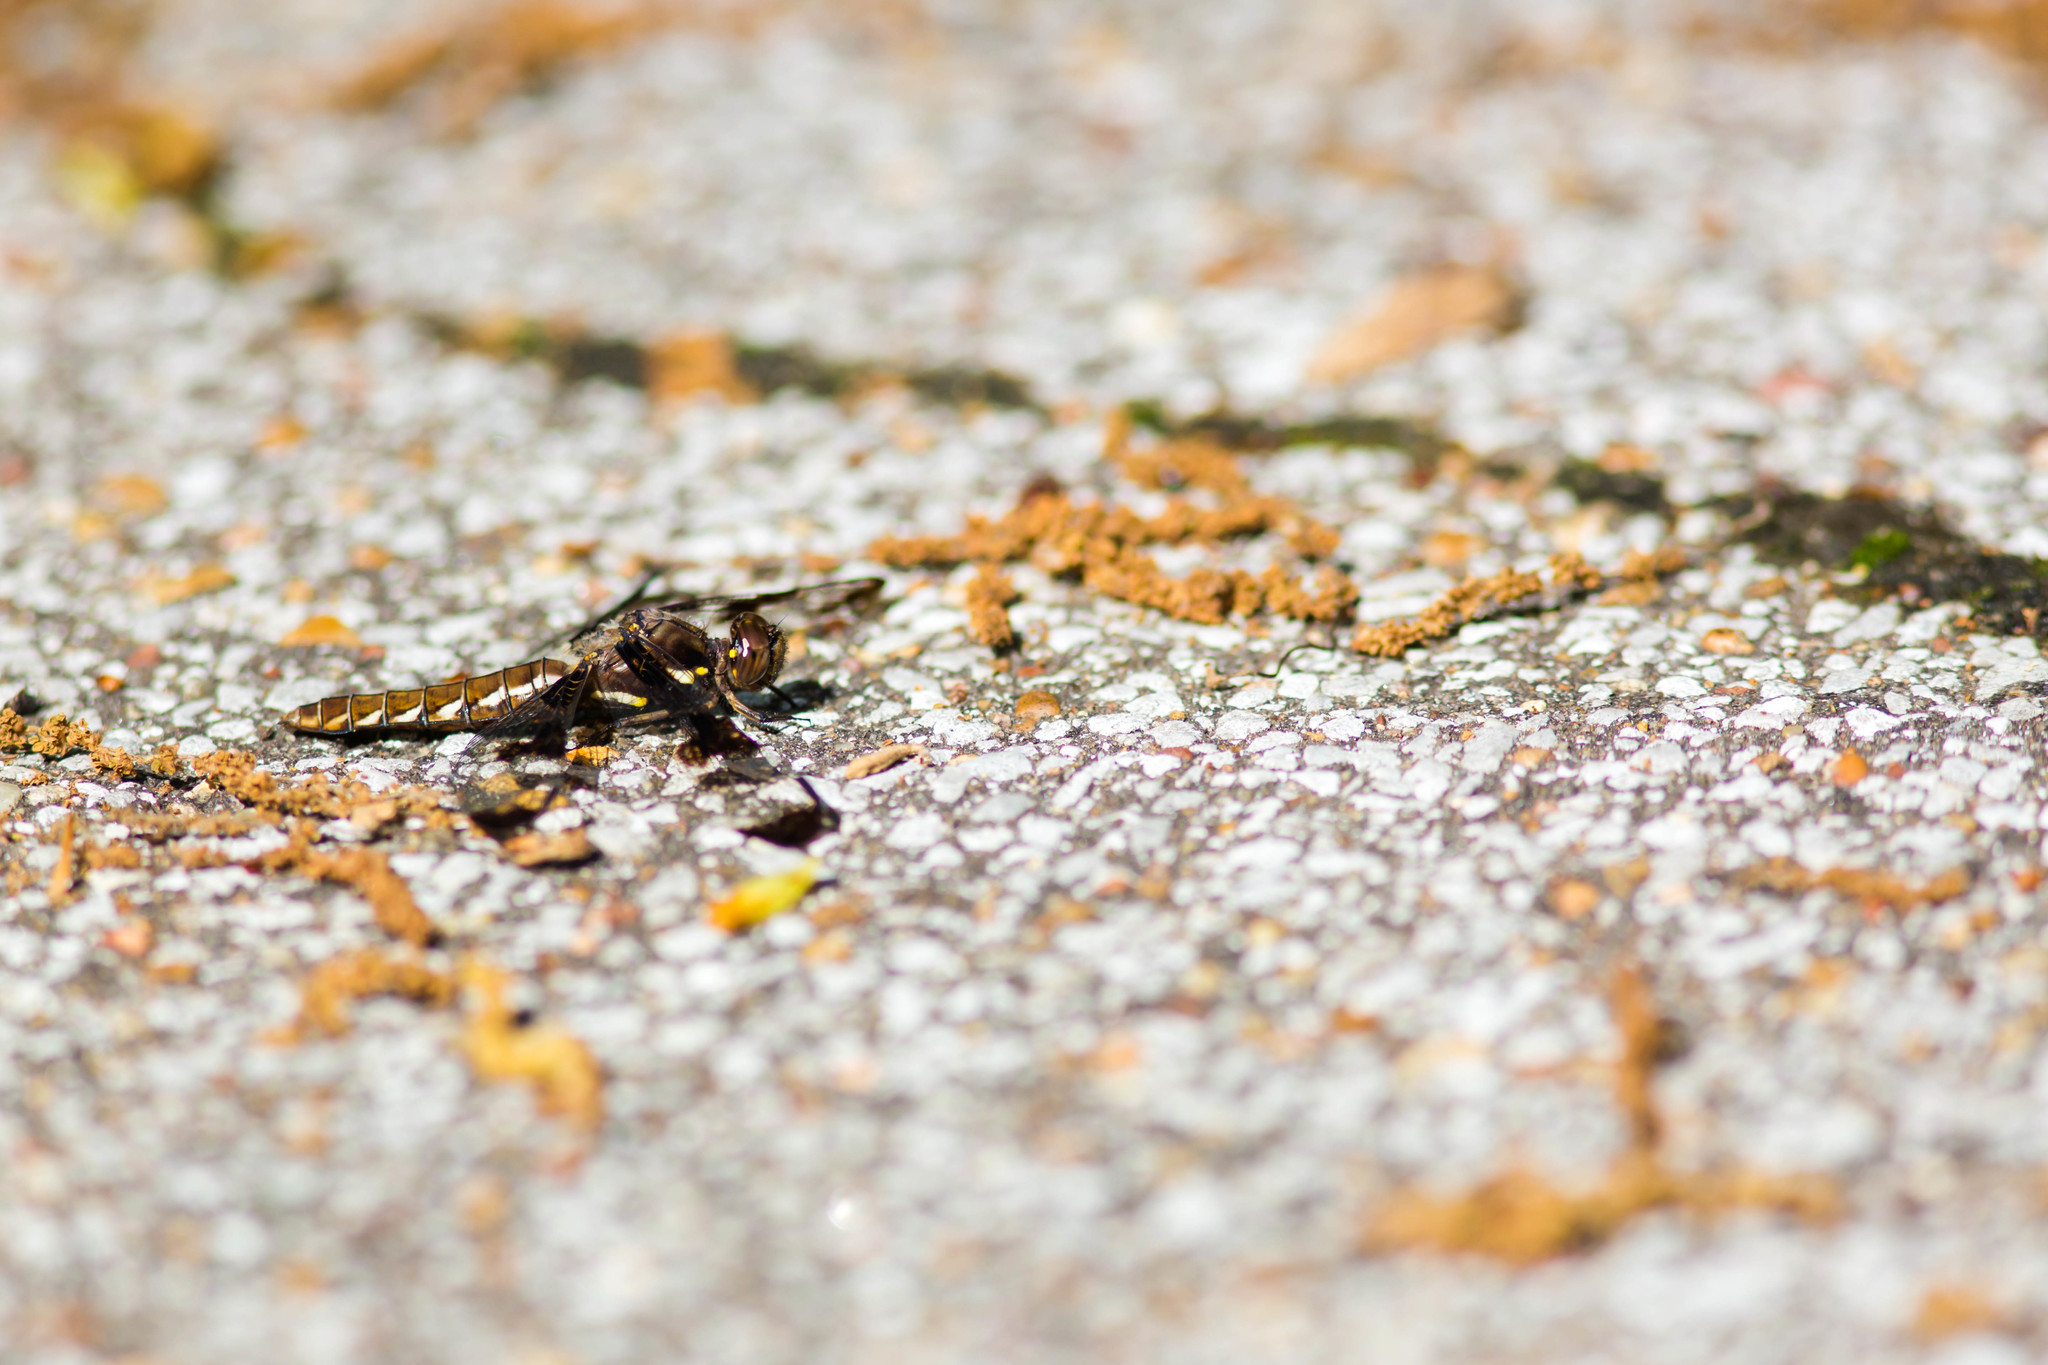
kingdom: Animalia
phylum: Arthropoda
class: Insecta
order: Odonata
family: Libellulidae
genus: Plathemis
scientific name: Plathemis lydia
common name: Common whitetail
